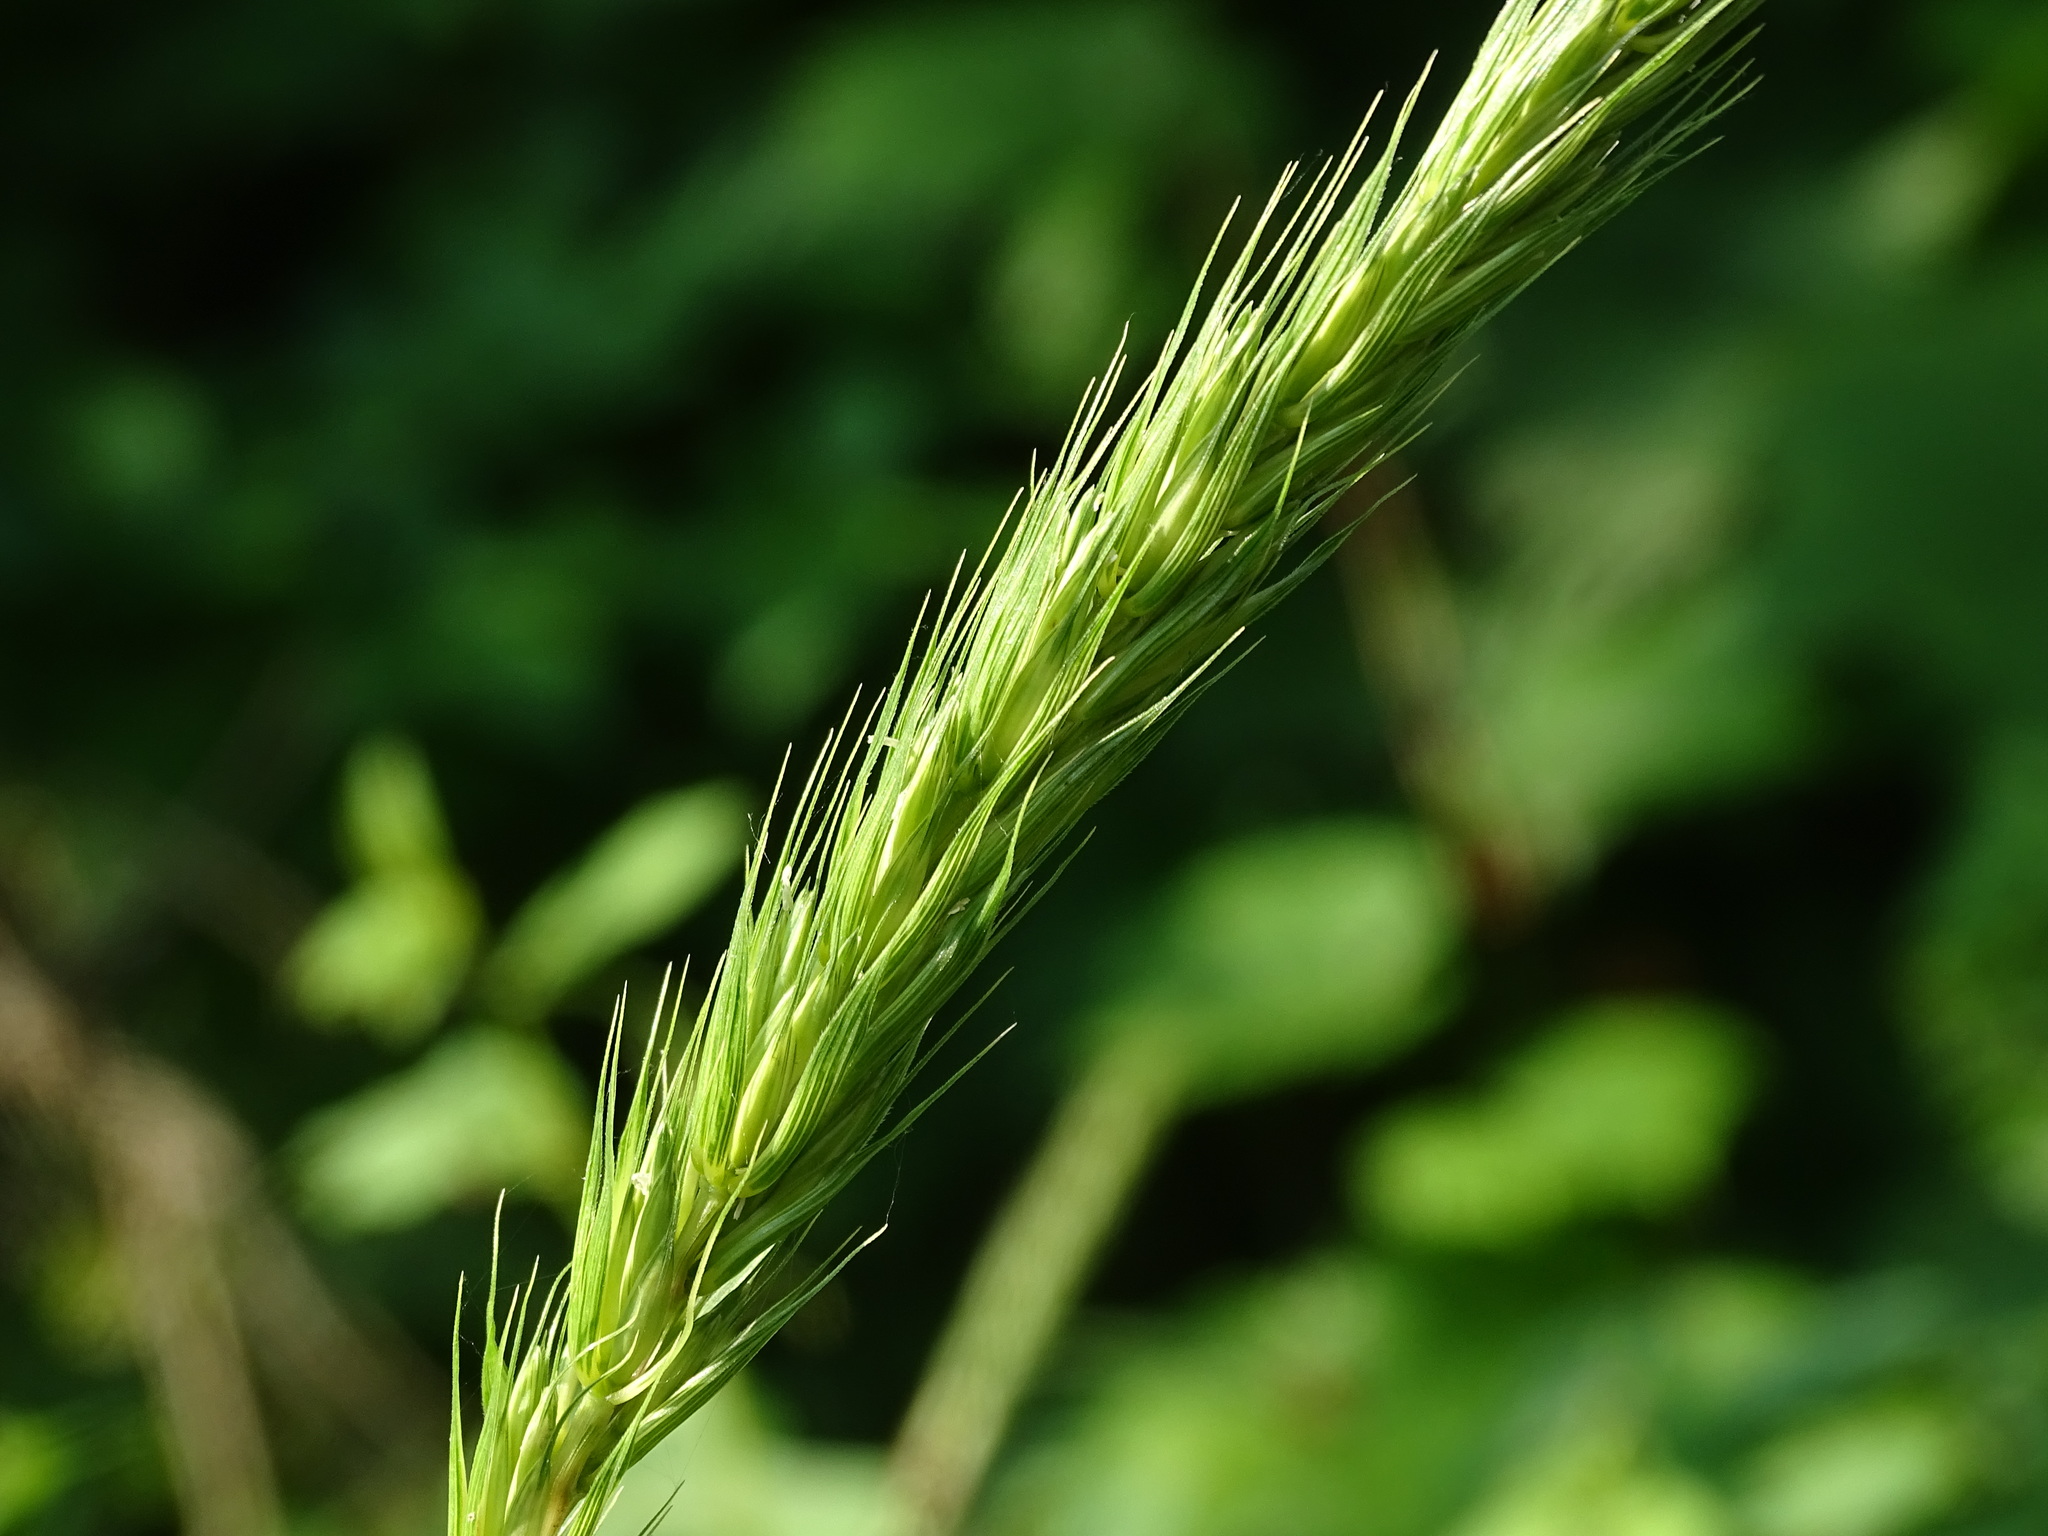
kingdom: Plantae
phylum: Tracheophyta
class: Liliopsida
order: Poales
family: Poaceae
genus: Elymus
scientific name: Elymus virginicus
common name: Common eastern wildrye
